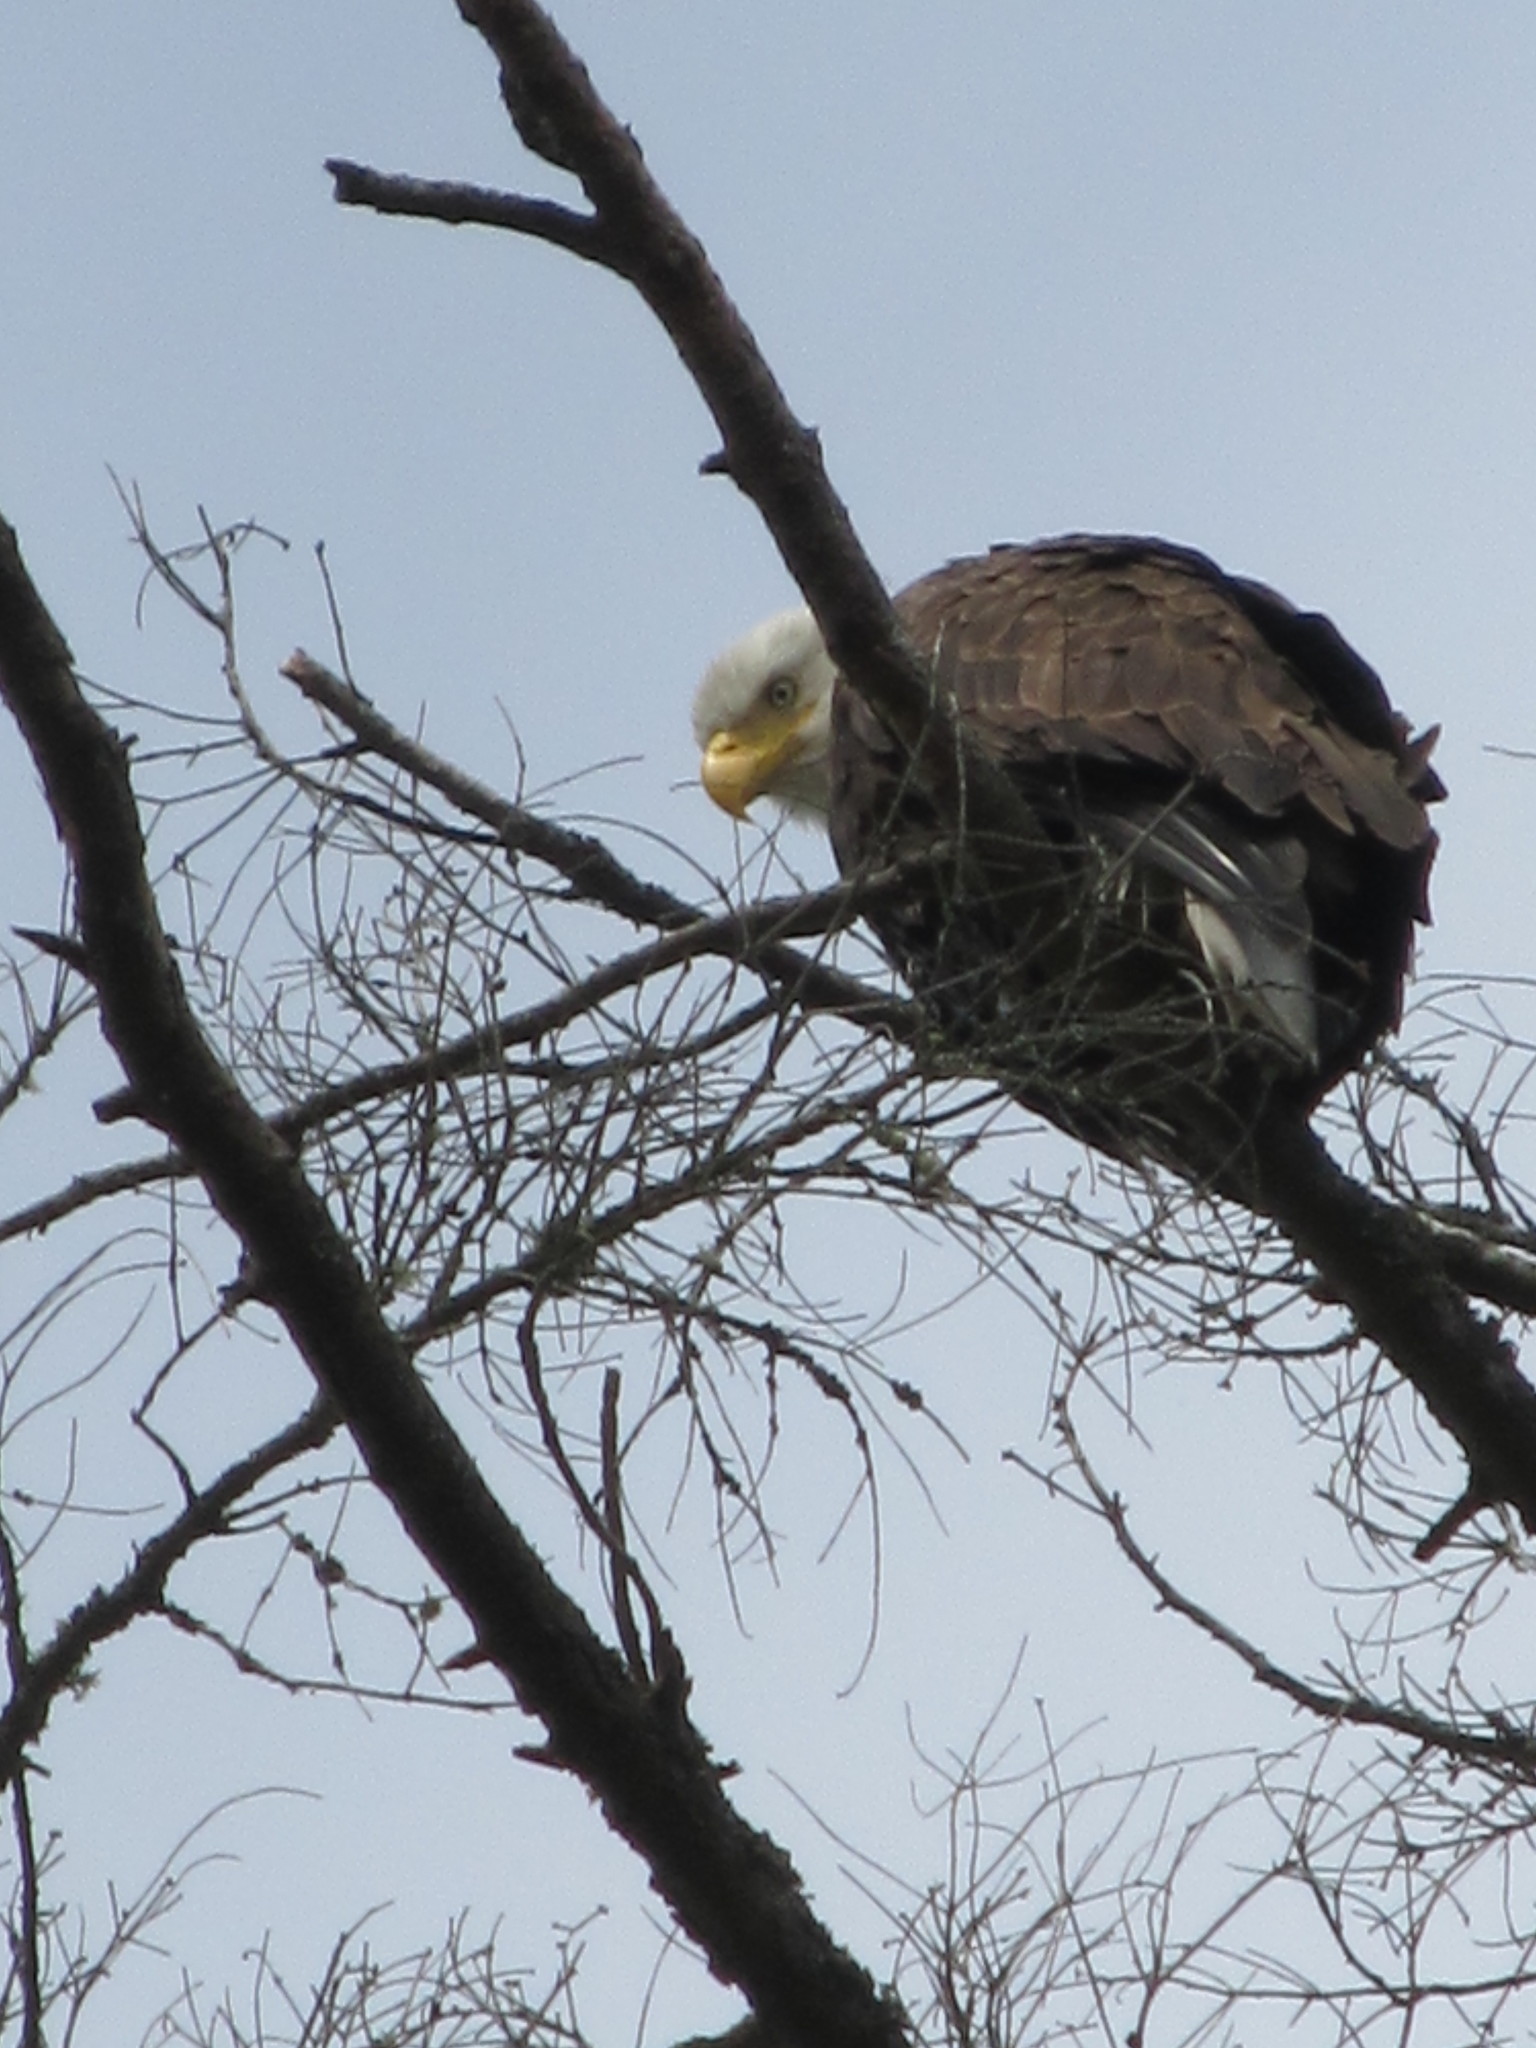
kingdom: Animalia
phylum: Chordata
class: Aves
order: Accipitriformes
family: Accipitridae
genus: Haliaeetus
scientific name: Haliaeetus leucocephalus
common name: Bald eagle
